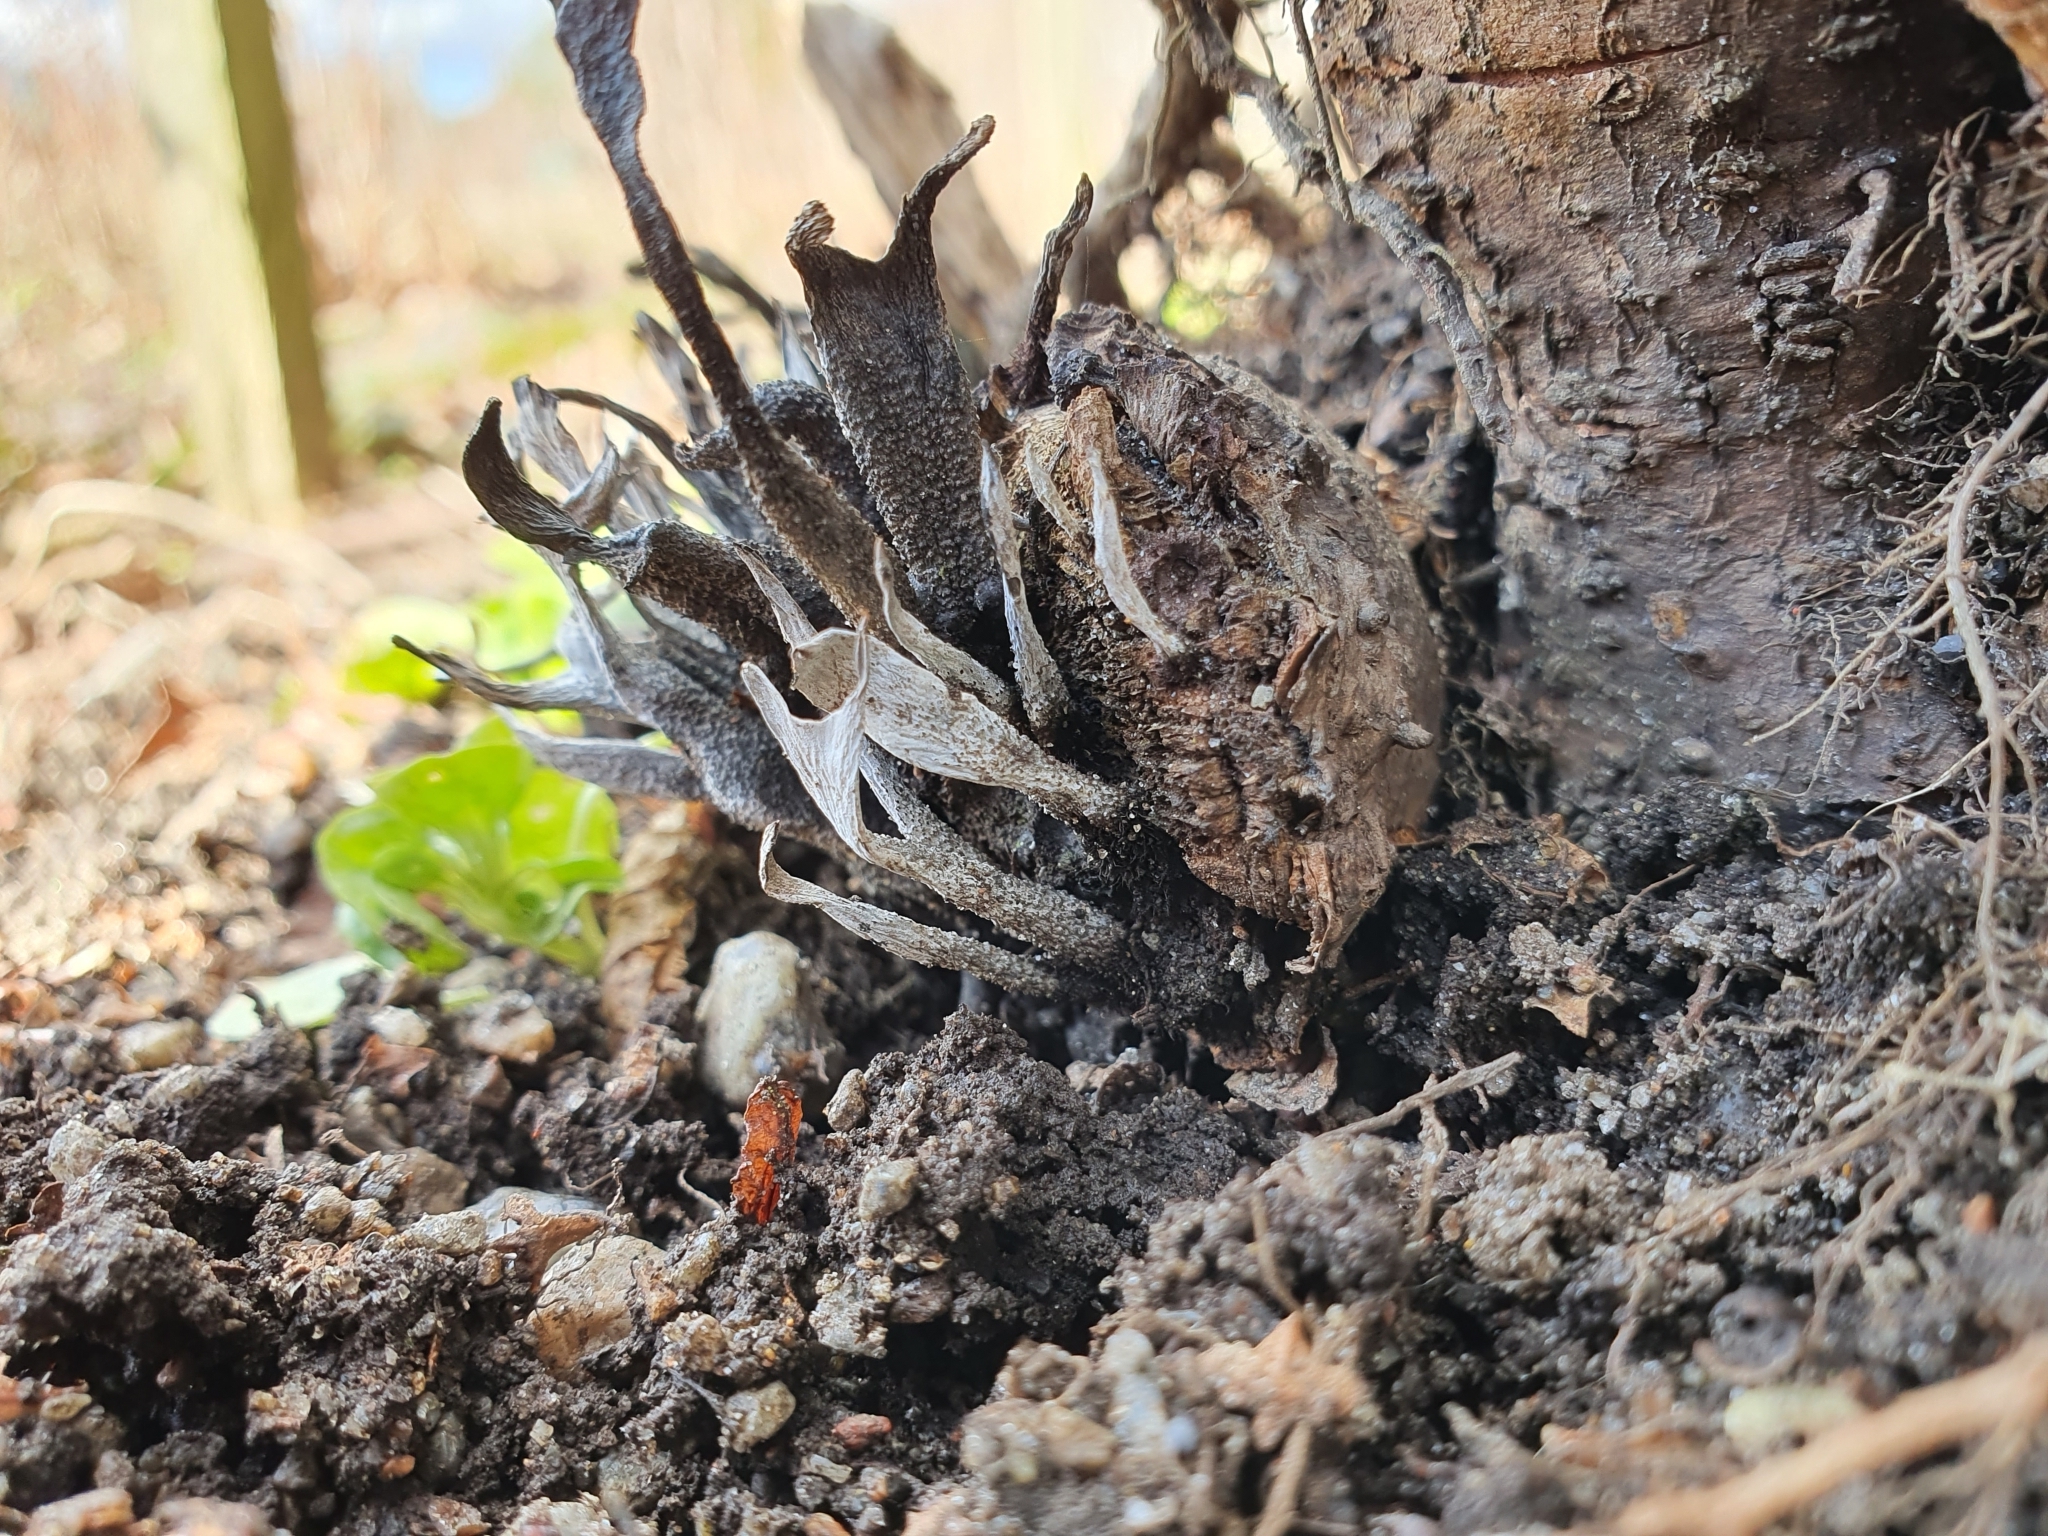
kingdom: Fungi
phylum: Ascomycota
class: Sordariomycetes
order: Xylariales
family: Xylariaceae
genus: Xylaria
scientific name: Xylaria hypoxylon
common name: Candle-snuff fungus
